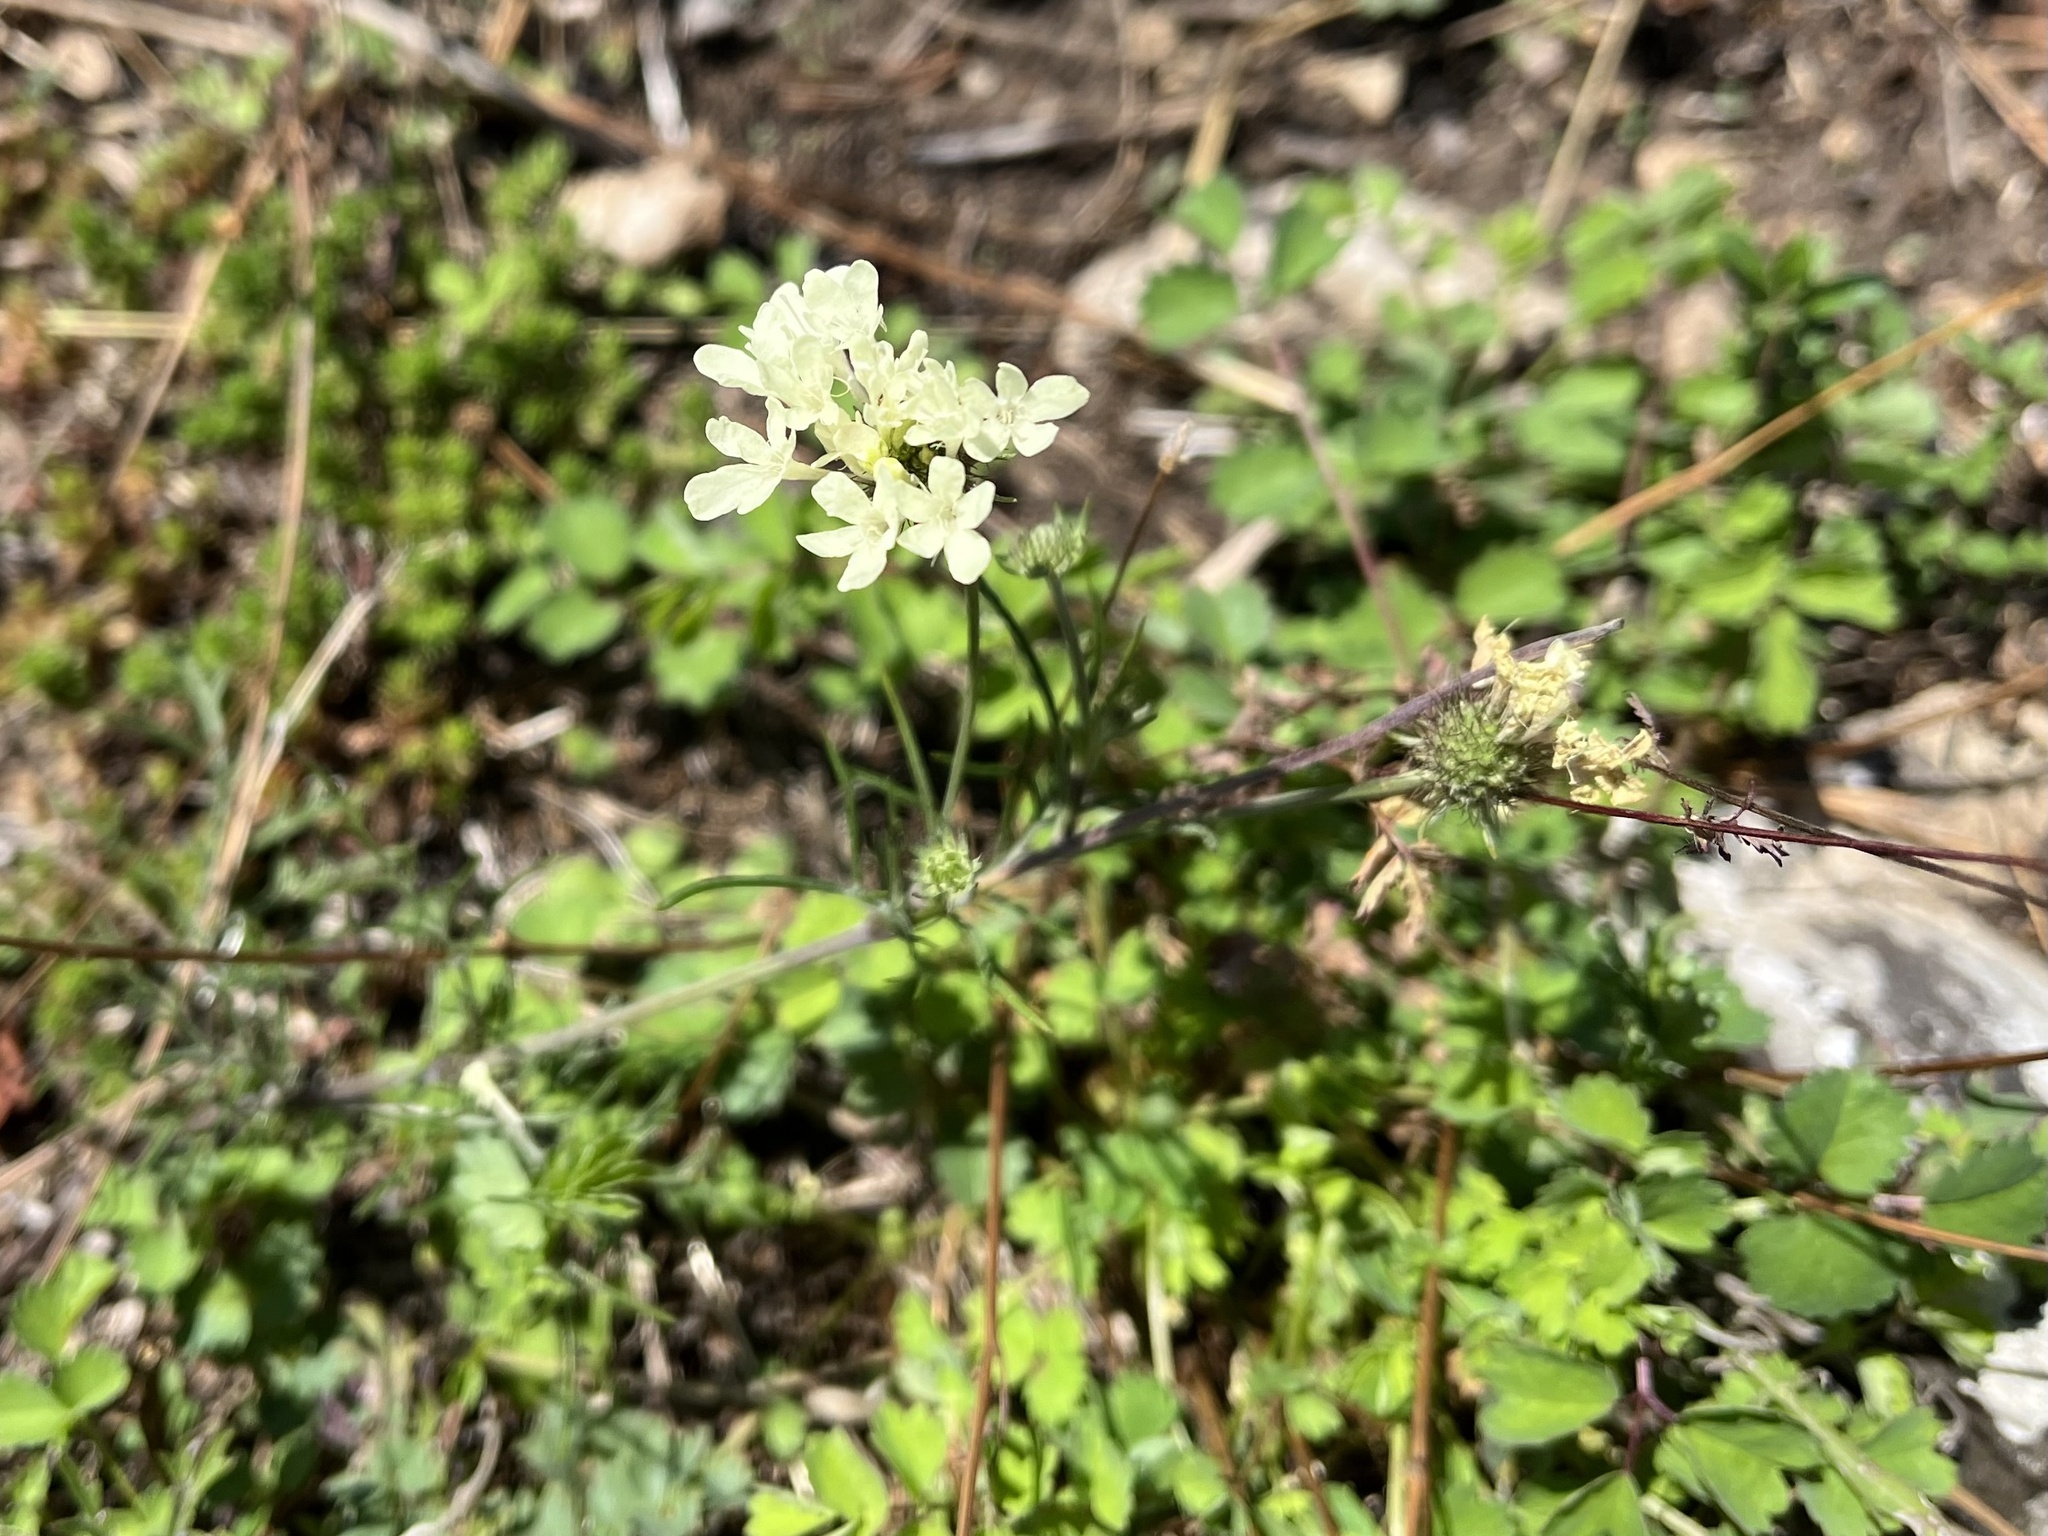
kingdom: Plantae
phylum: Tracheophyta
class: Magnoliopsida
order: Dipsacales
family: Caprifoliaceae
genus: Scabiosa
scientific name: Scabiosa ochroleuca
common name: Cream pincushions
